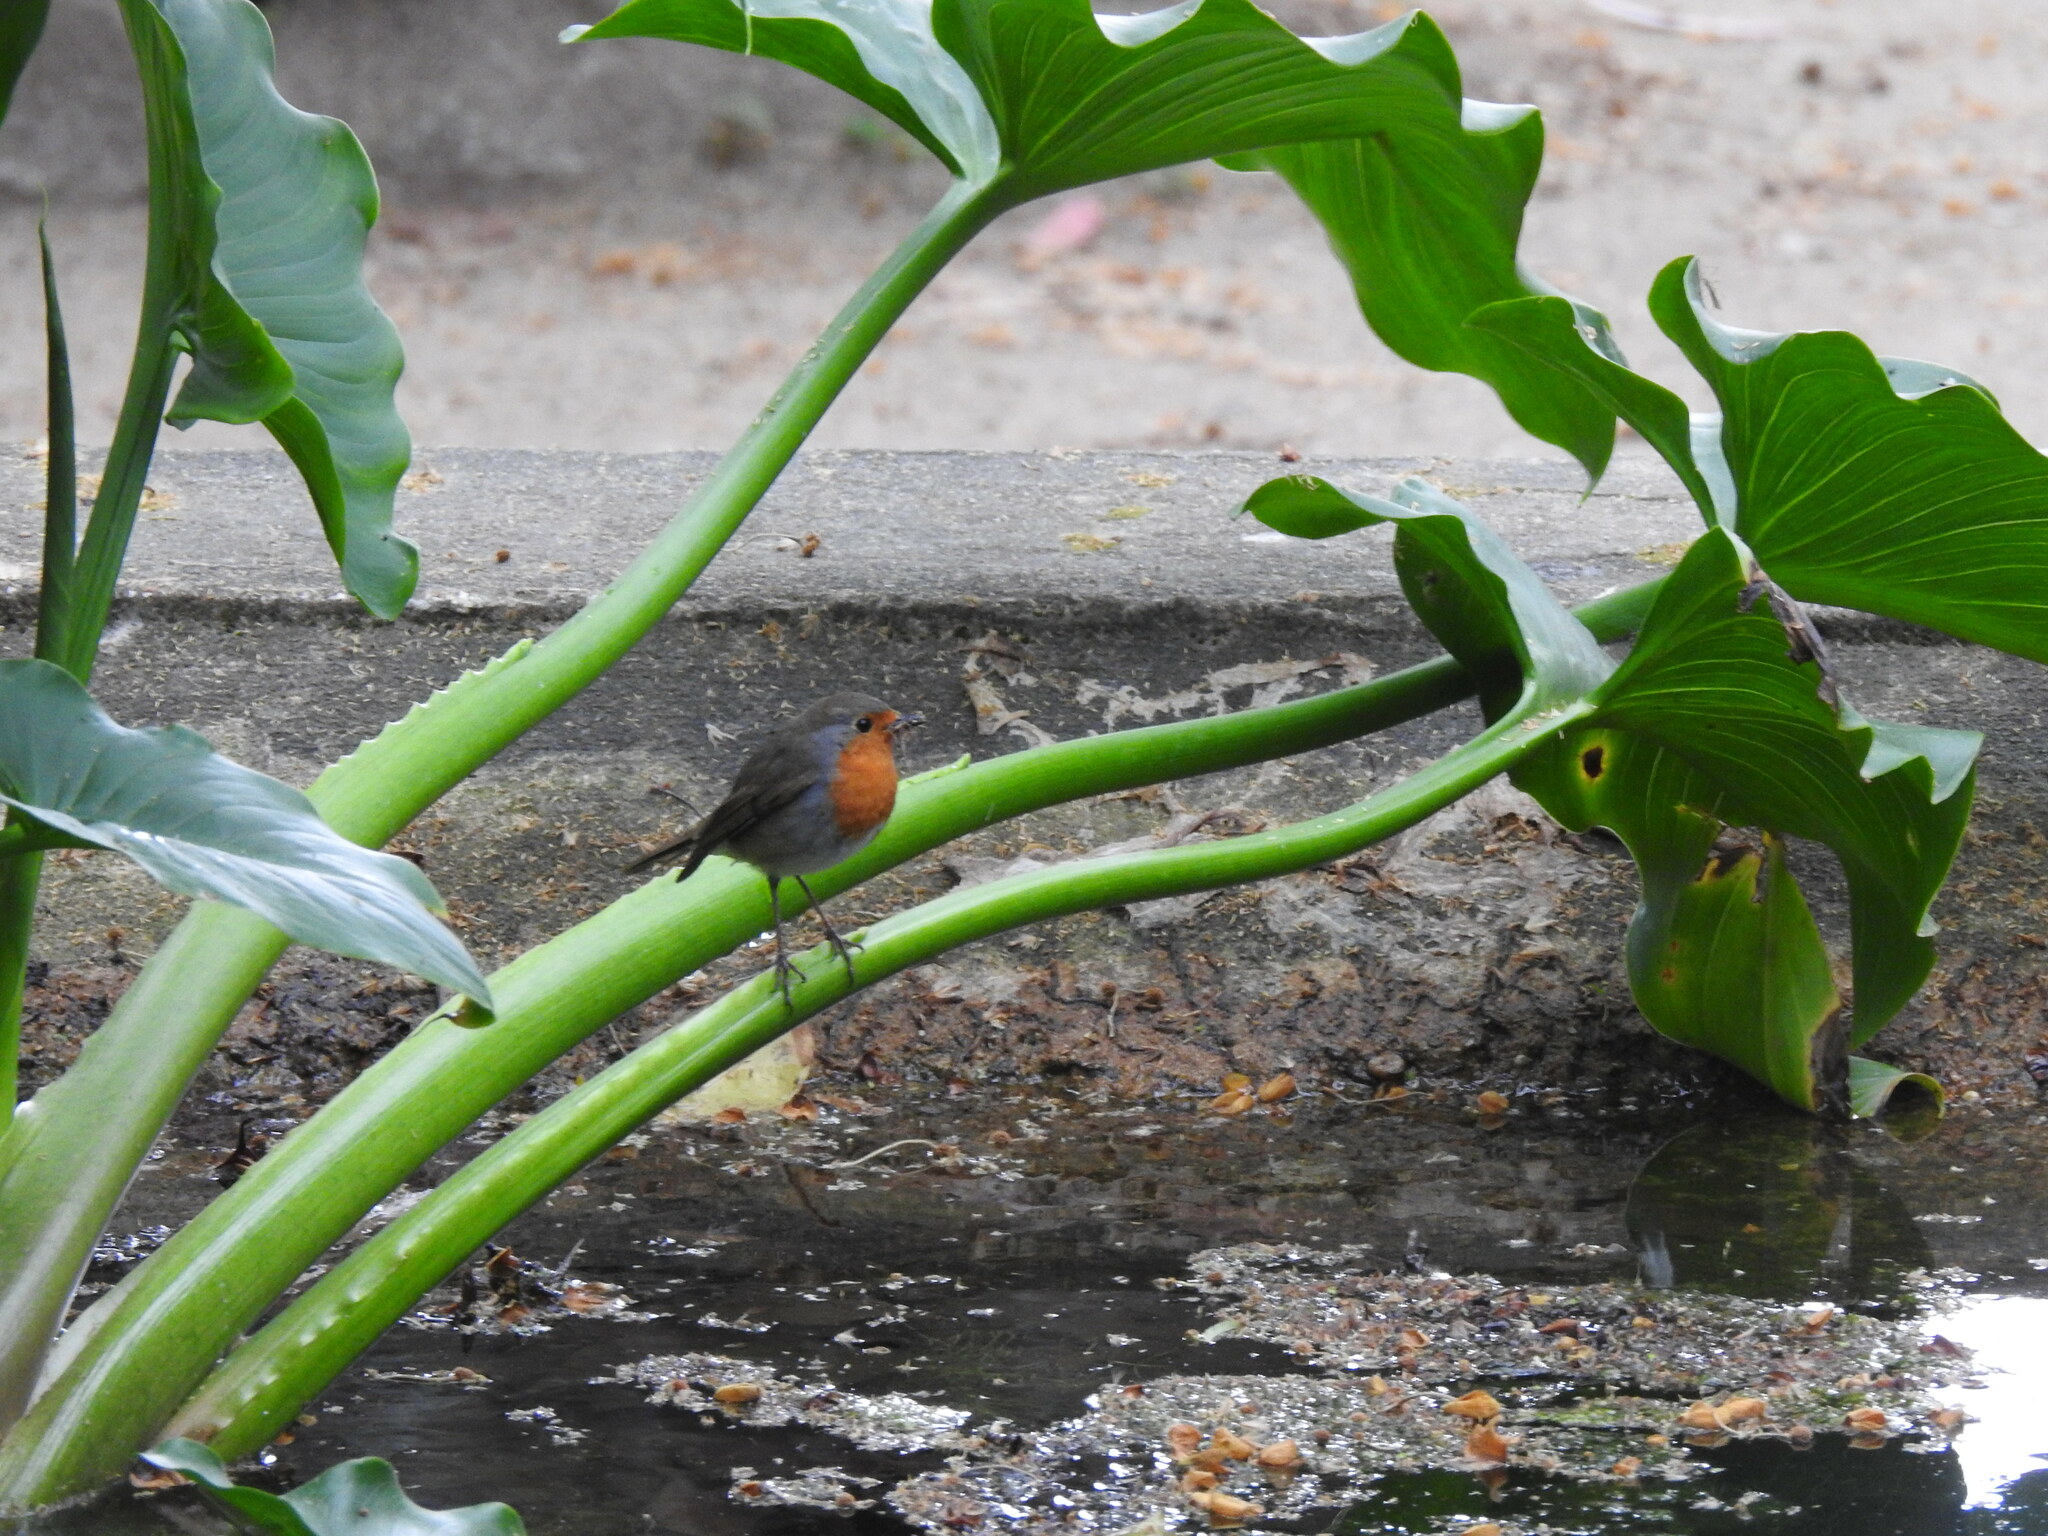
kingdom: Animalia
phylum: Chordata
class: Aves
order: Passeriformes
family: Muscicapidae
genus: Erithacus
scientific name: Erithacus rubecula
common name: European robin
